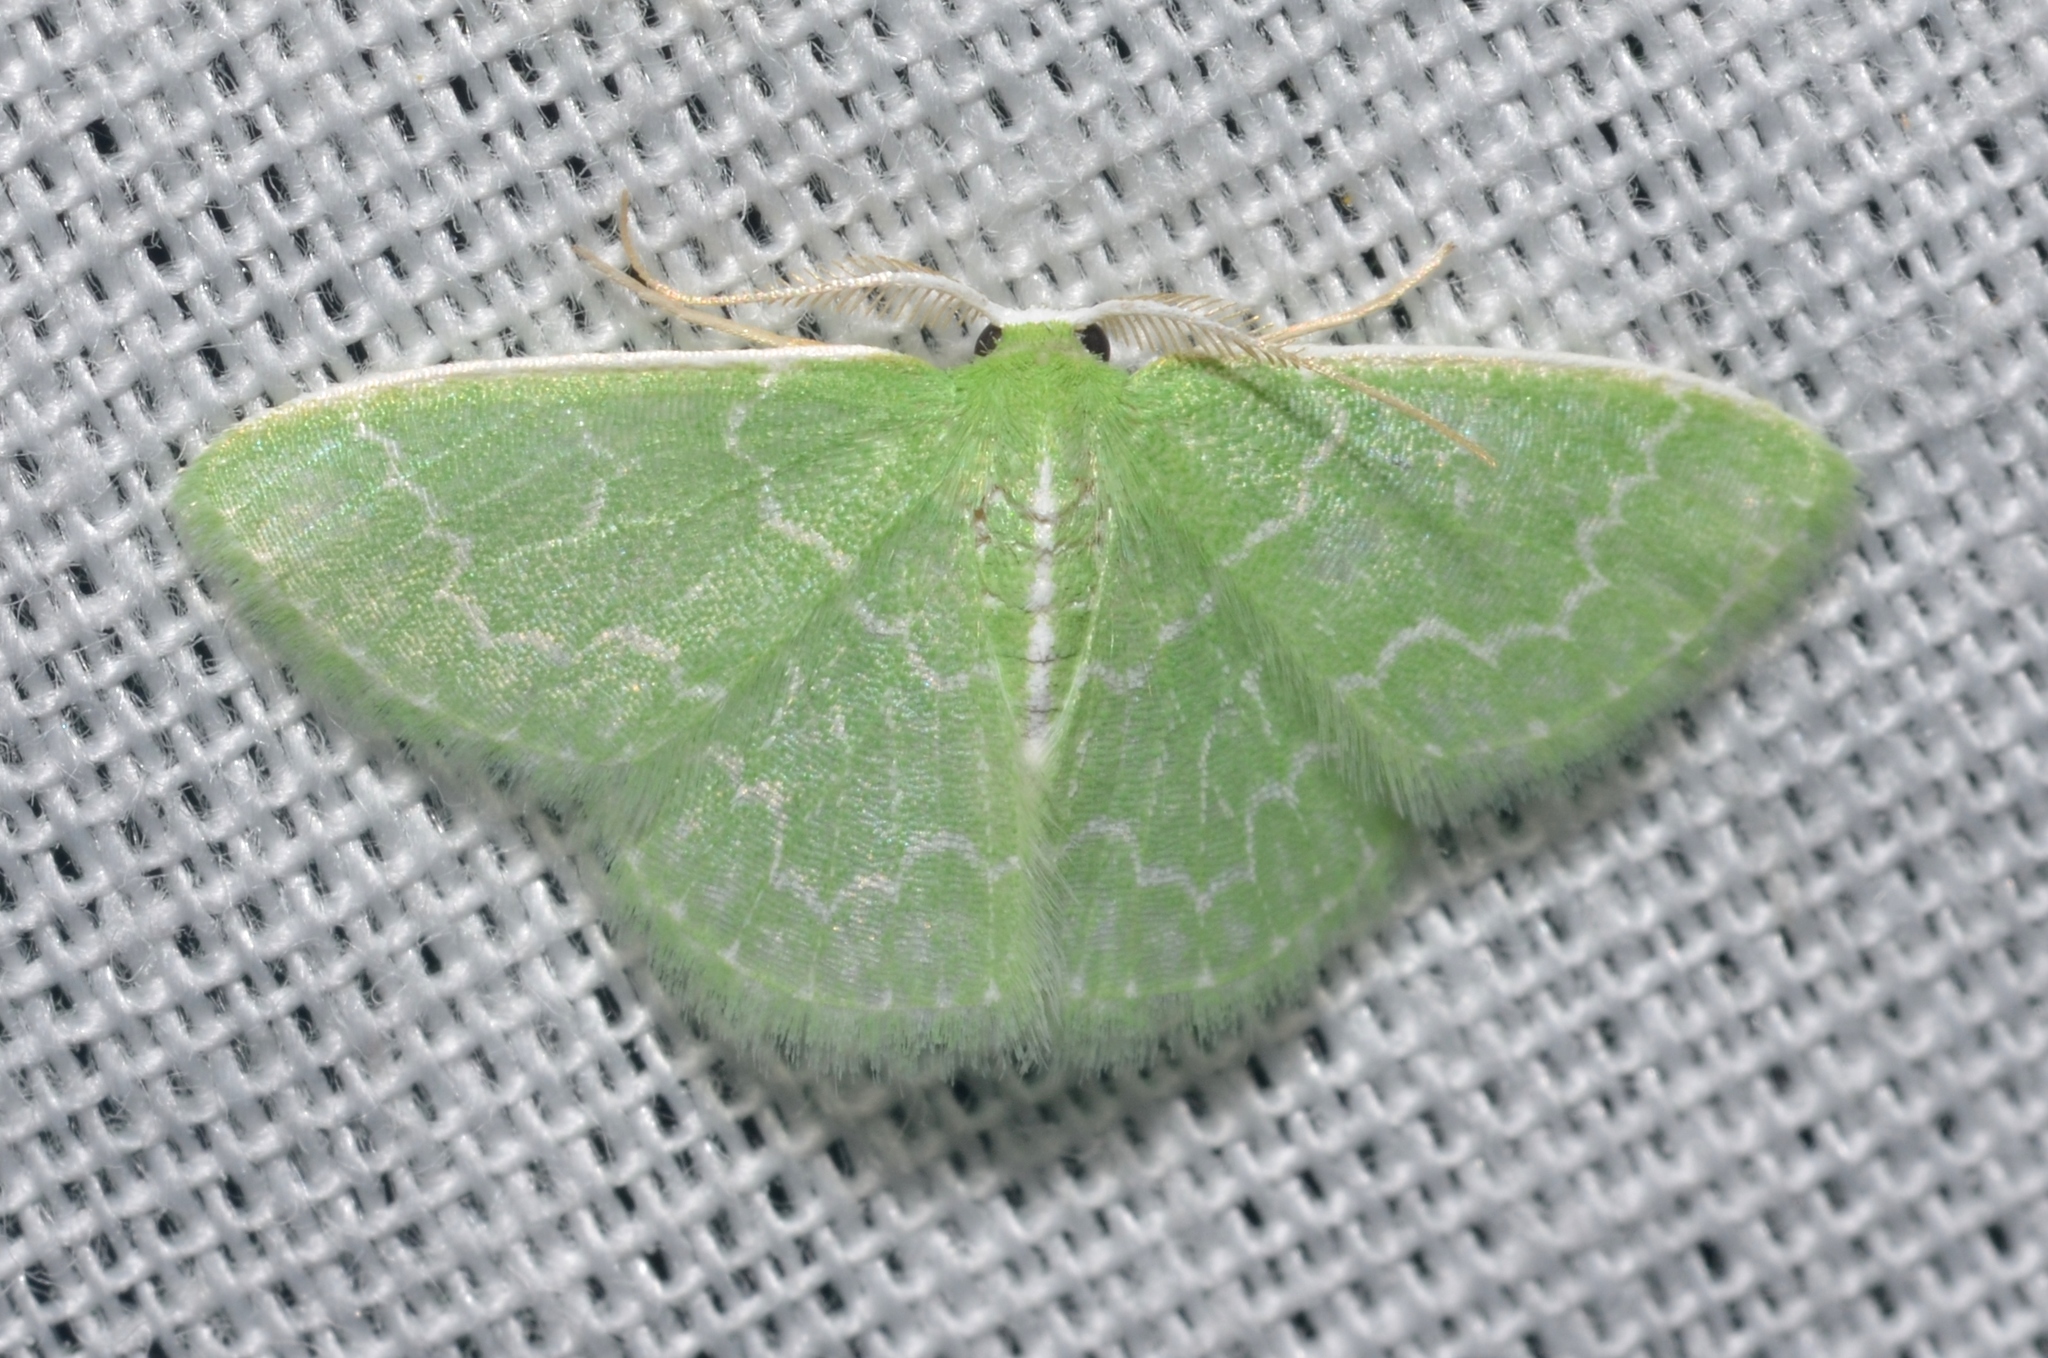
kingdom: Animalia
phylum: Arthropoda
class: Insecta
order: Lepidoptera
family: Geometridae
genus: Synchlora
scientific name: Synchlora frondaria
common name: Southern emerald
